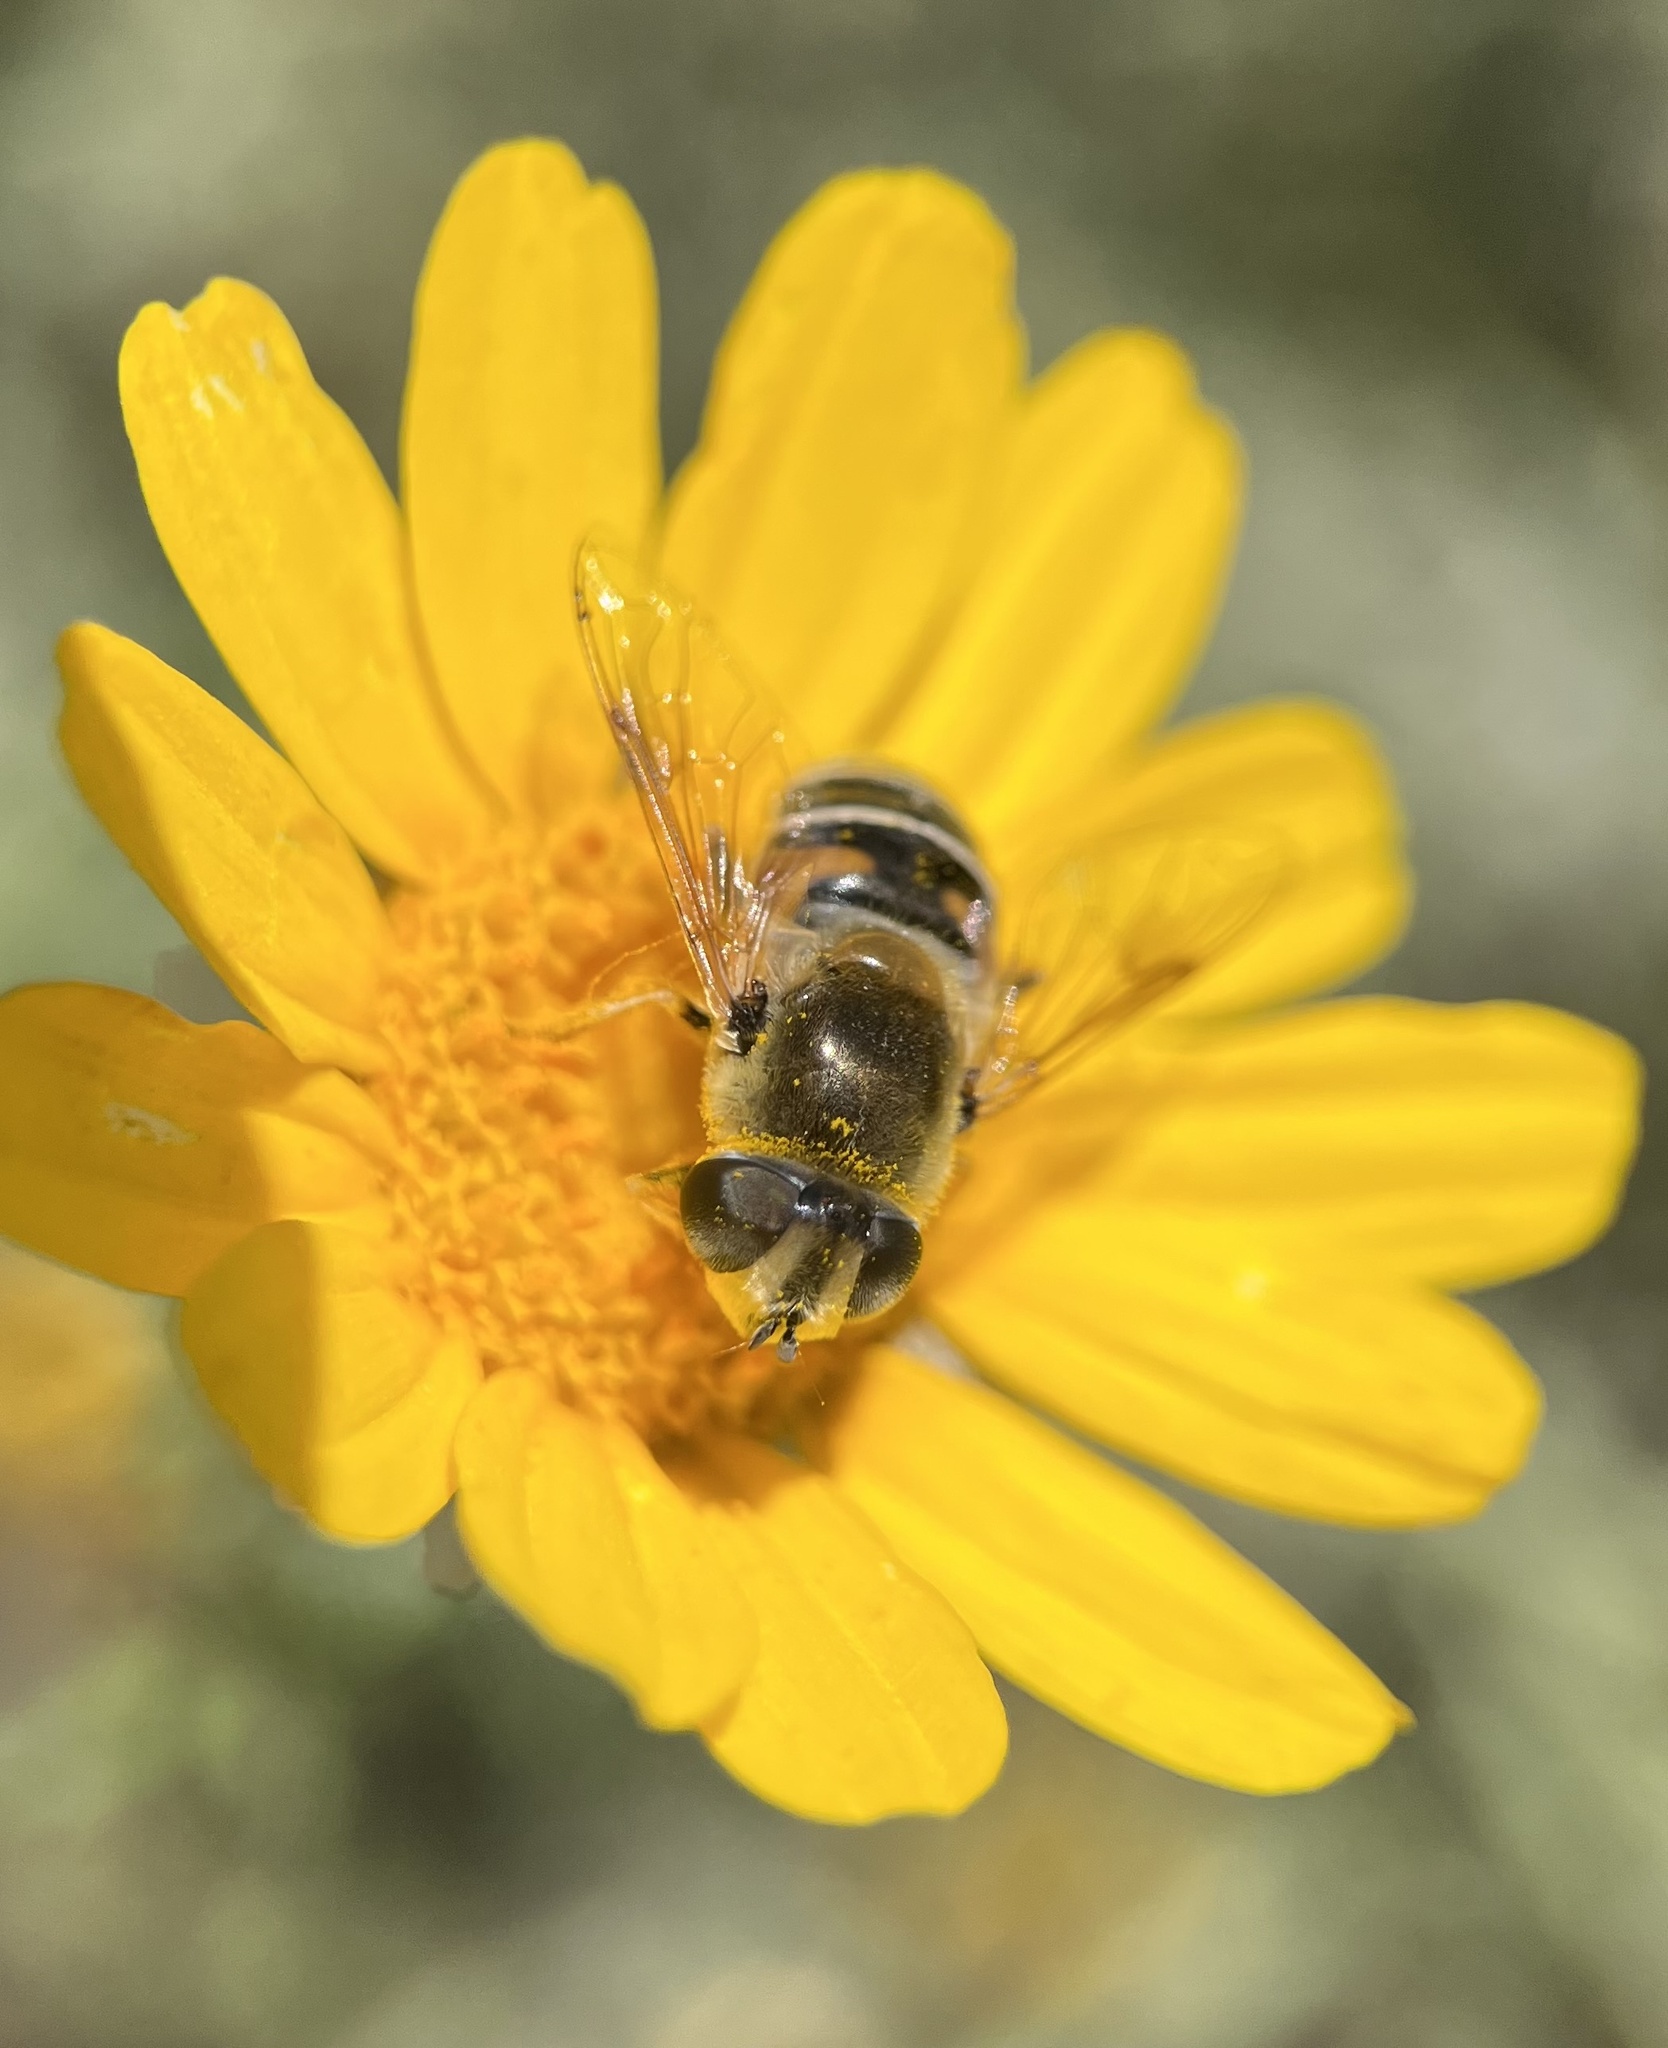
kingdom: Animalia
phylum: Arthropoda
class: Insecta
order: Diptera
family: Syrphidae
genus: Eristalis
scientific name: Eristalis stipator
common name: Yellow-shouldered drone fly
